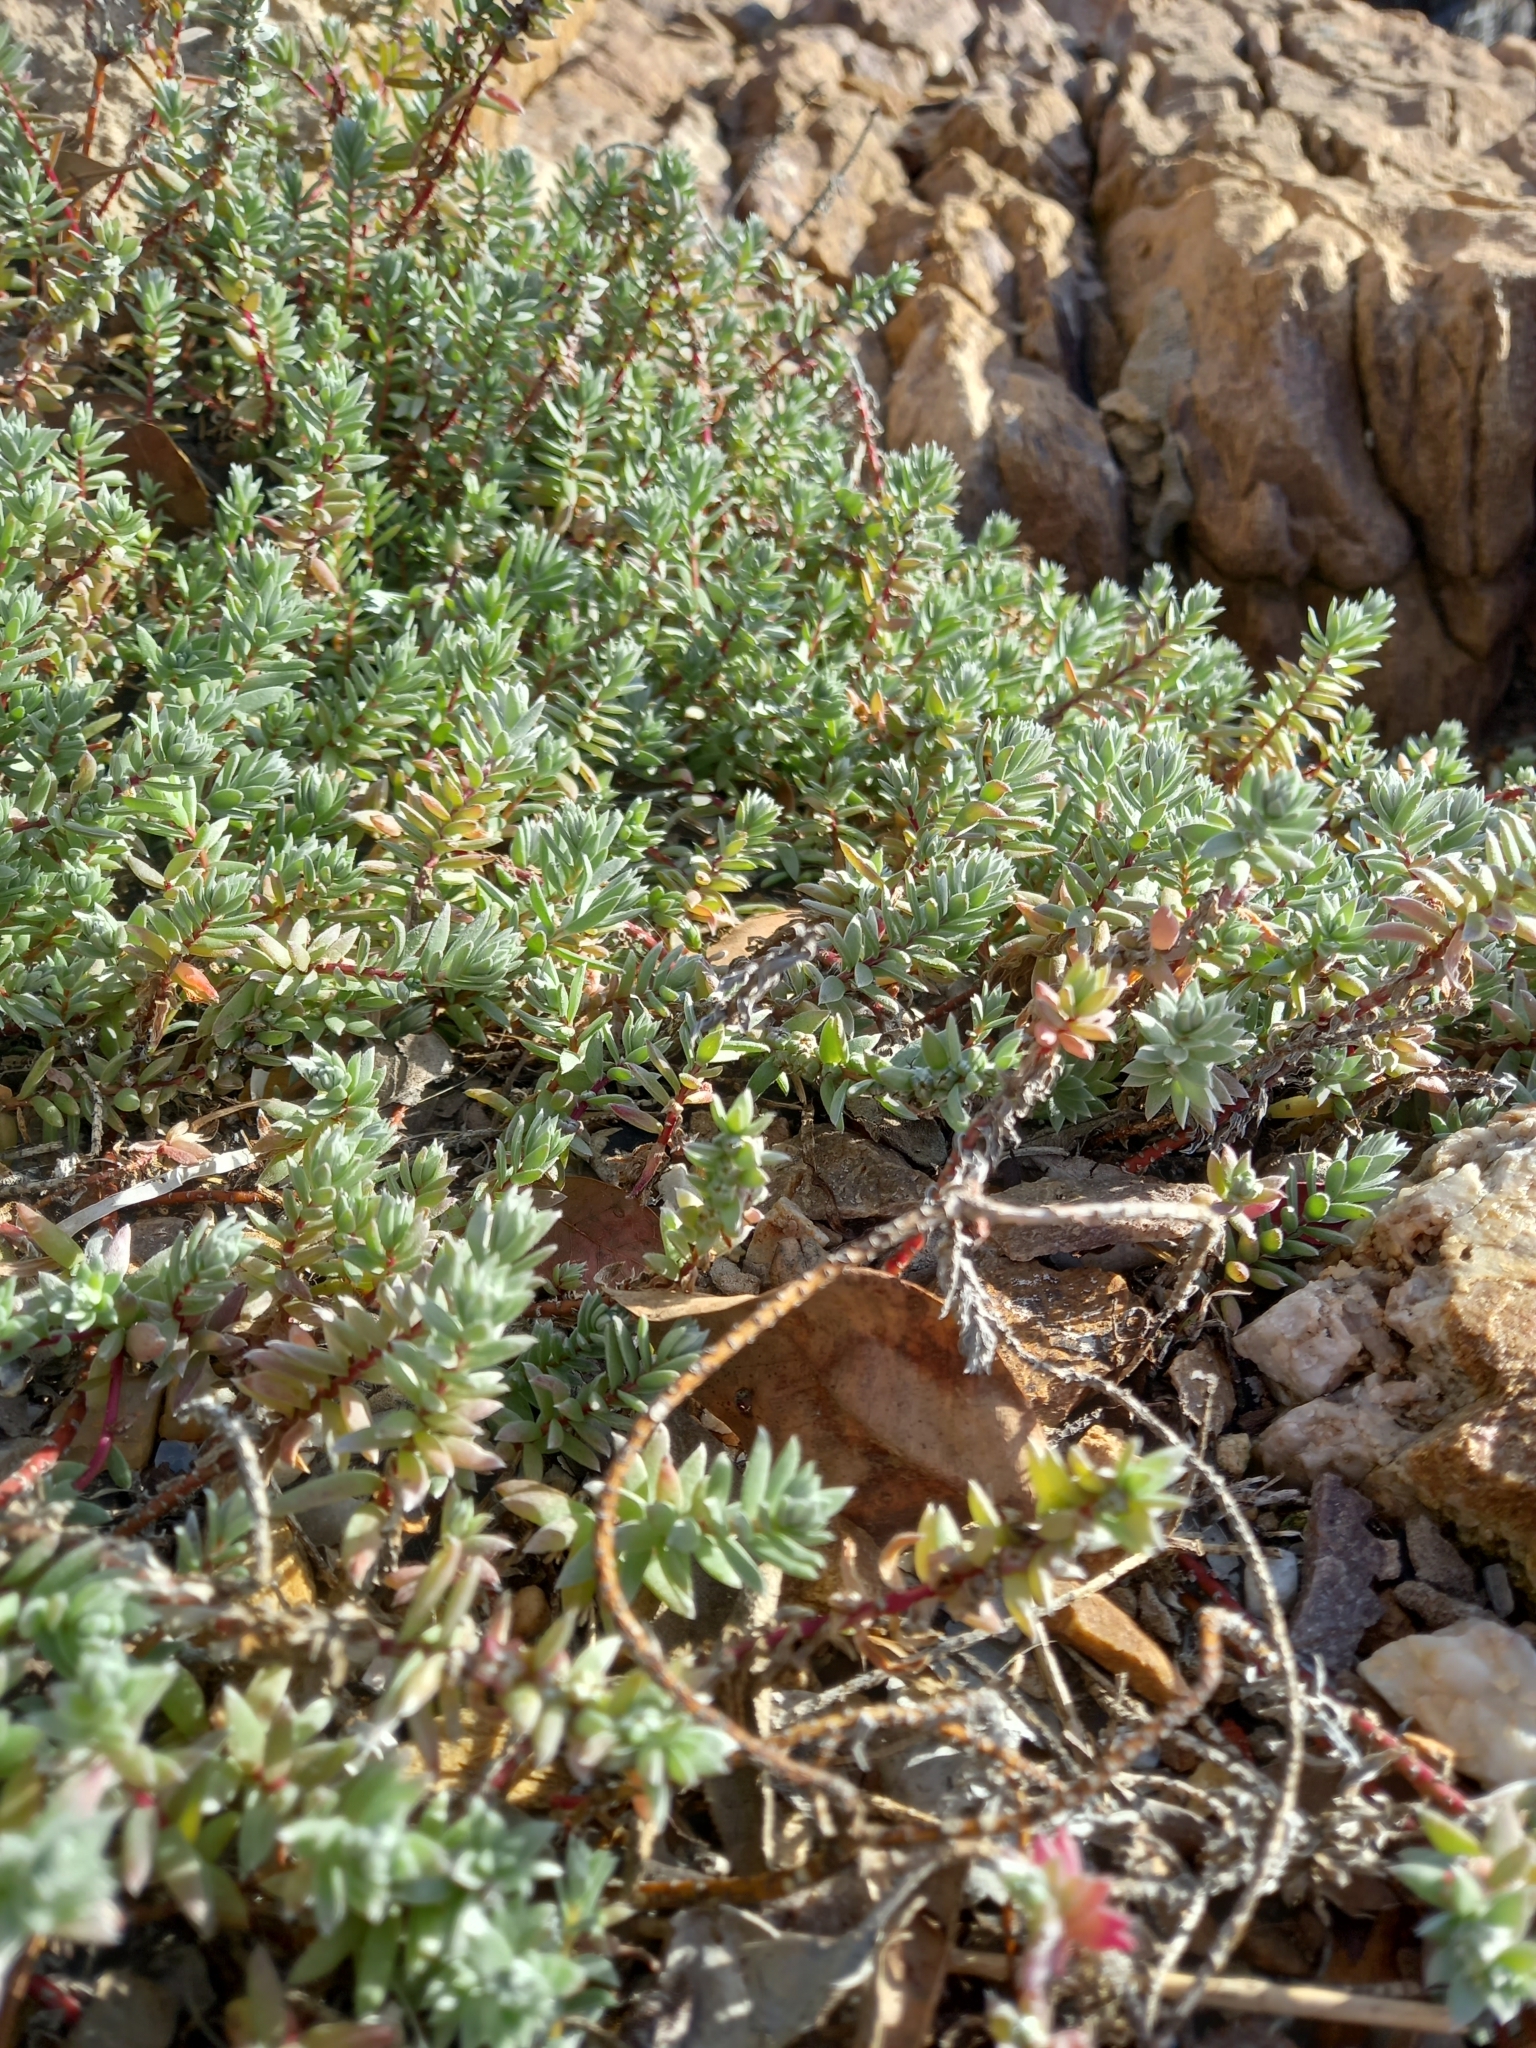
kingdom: Plantae
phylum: Tracheophyta
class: Magnoliopsida
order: Caryophyllales
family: Amaranthaceae
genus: Chenolea
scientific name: Chenolea diffusa
